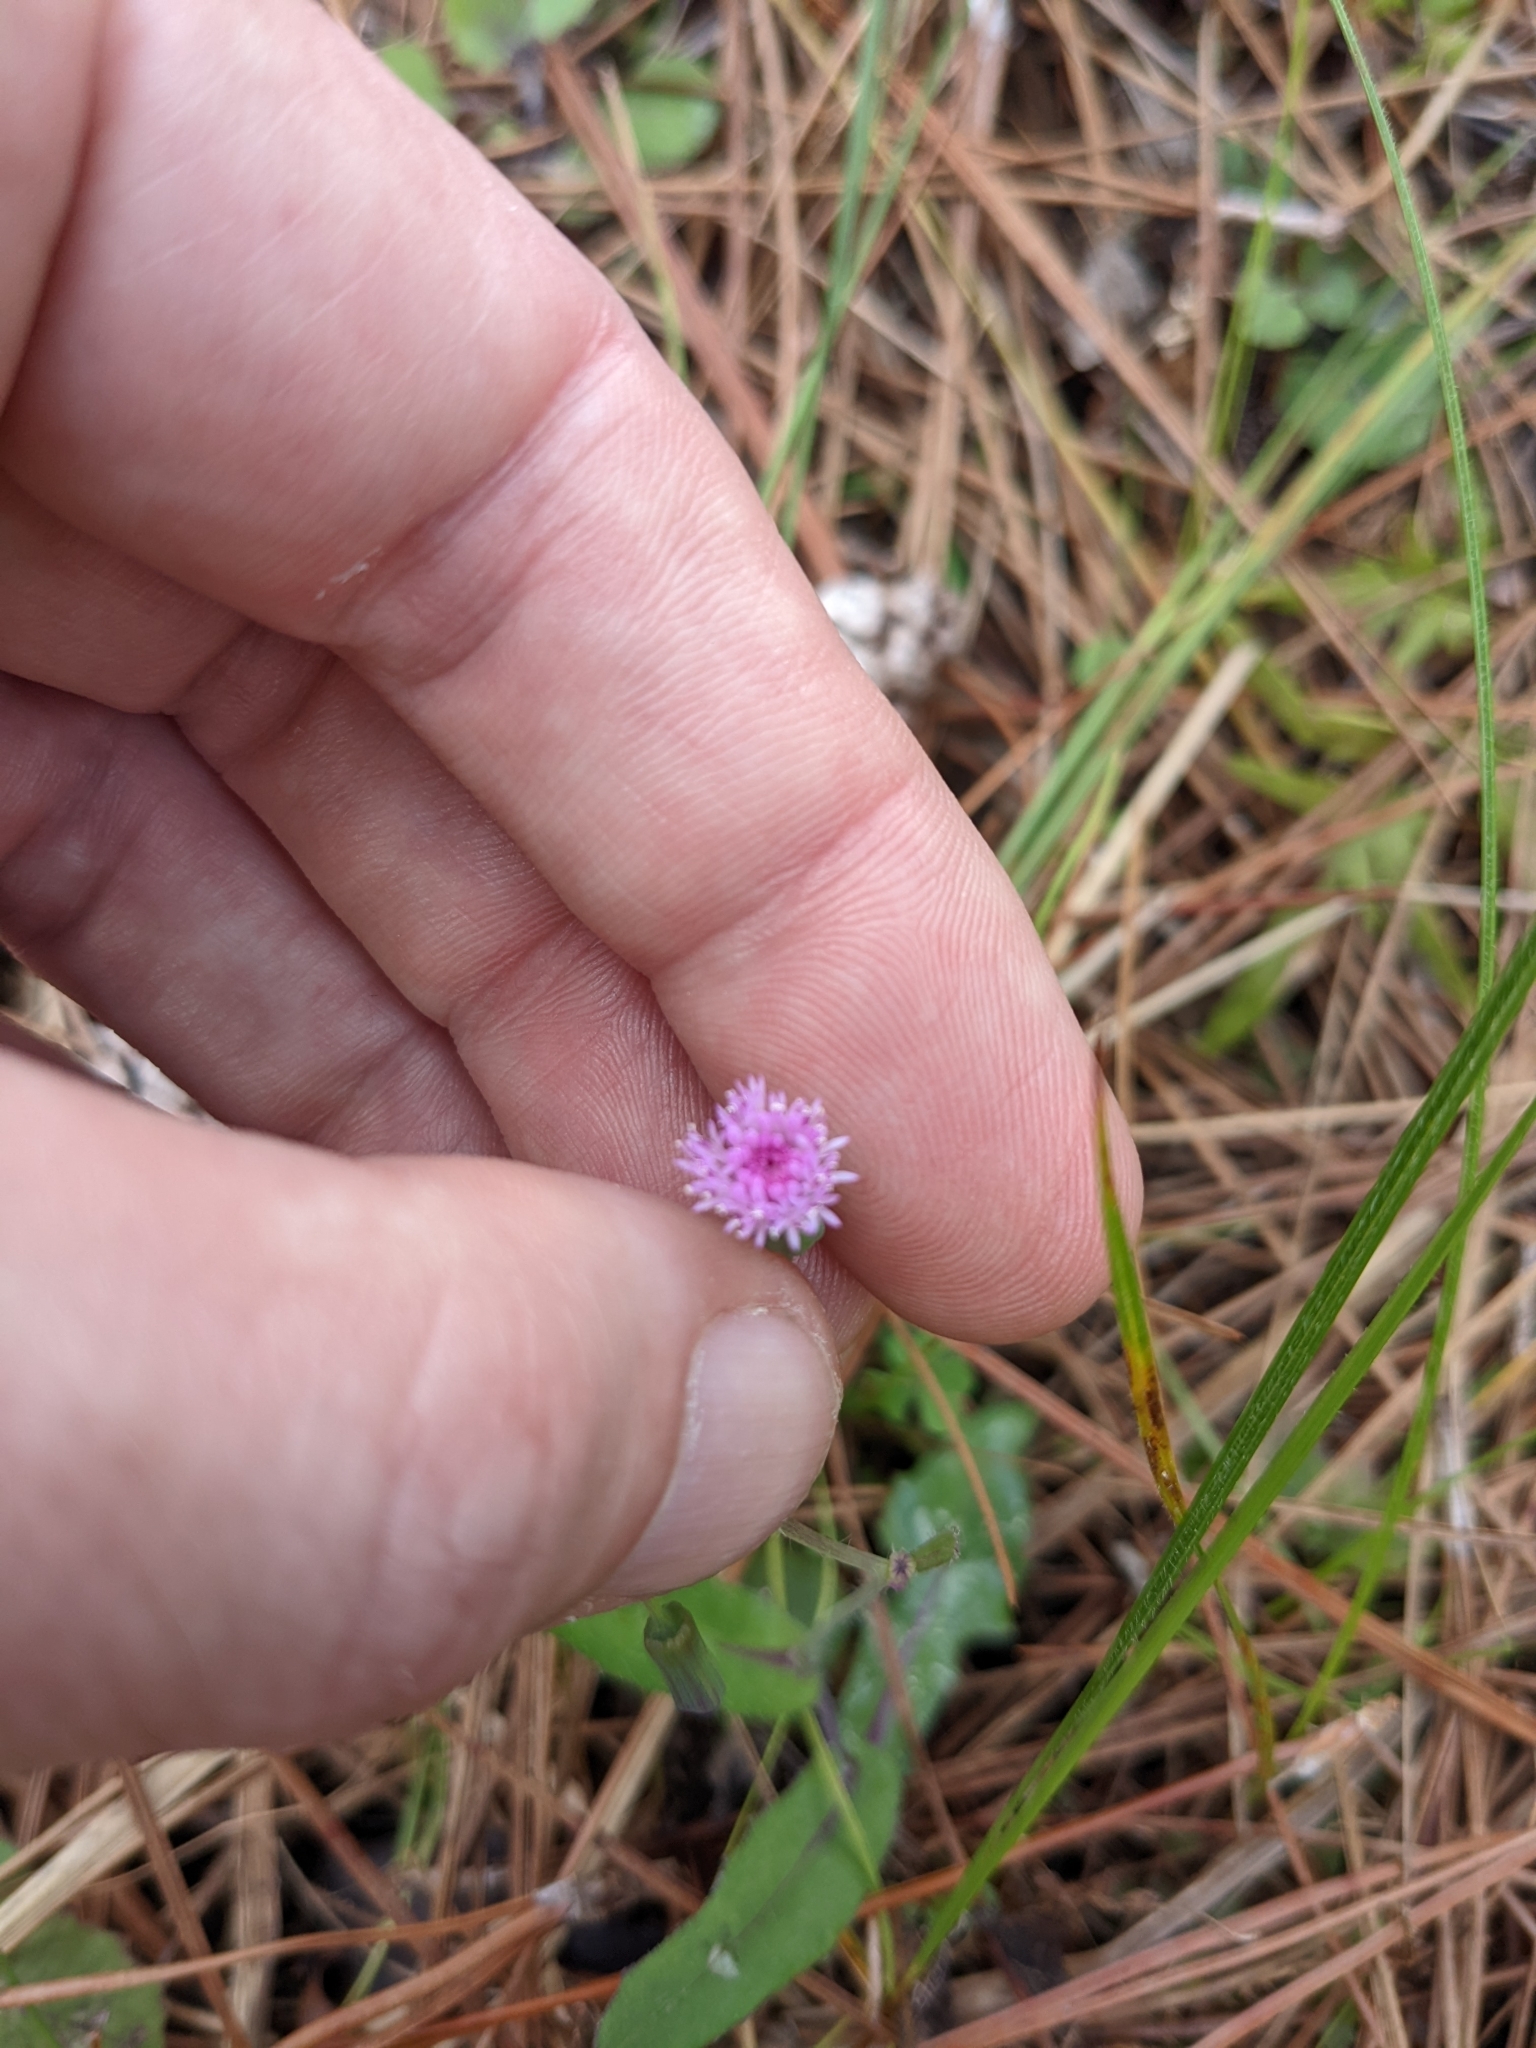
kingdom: Plantae
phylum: Tracheophyta
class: Magnoliopsida
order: Asterales
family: Asteraceae
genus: Emilia
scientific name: Emilia sonchifolia
